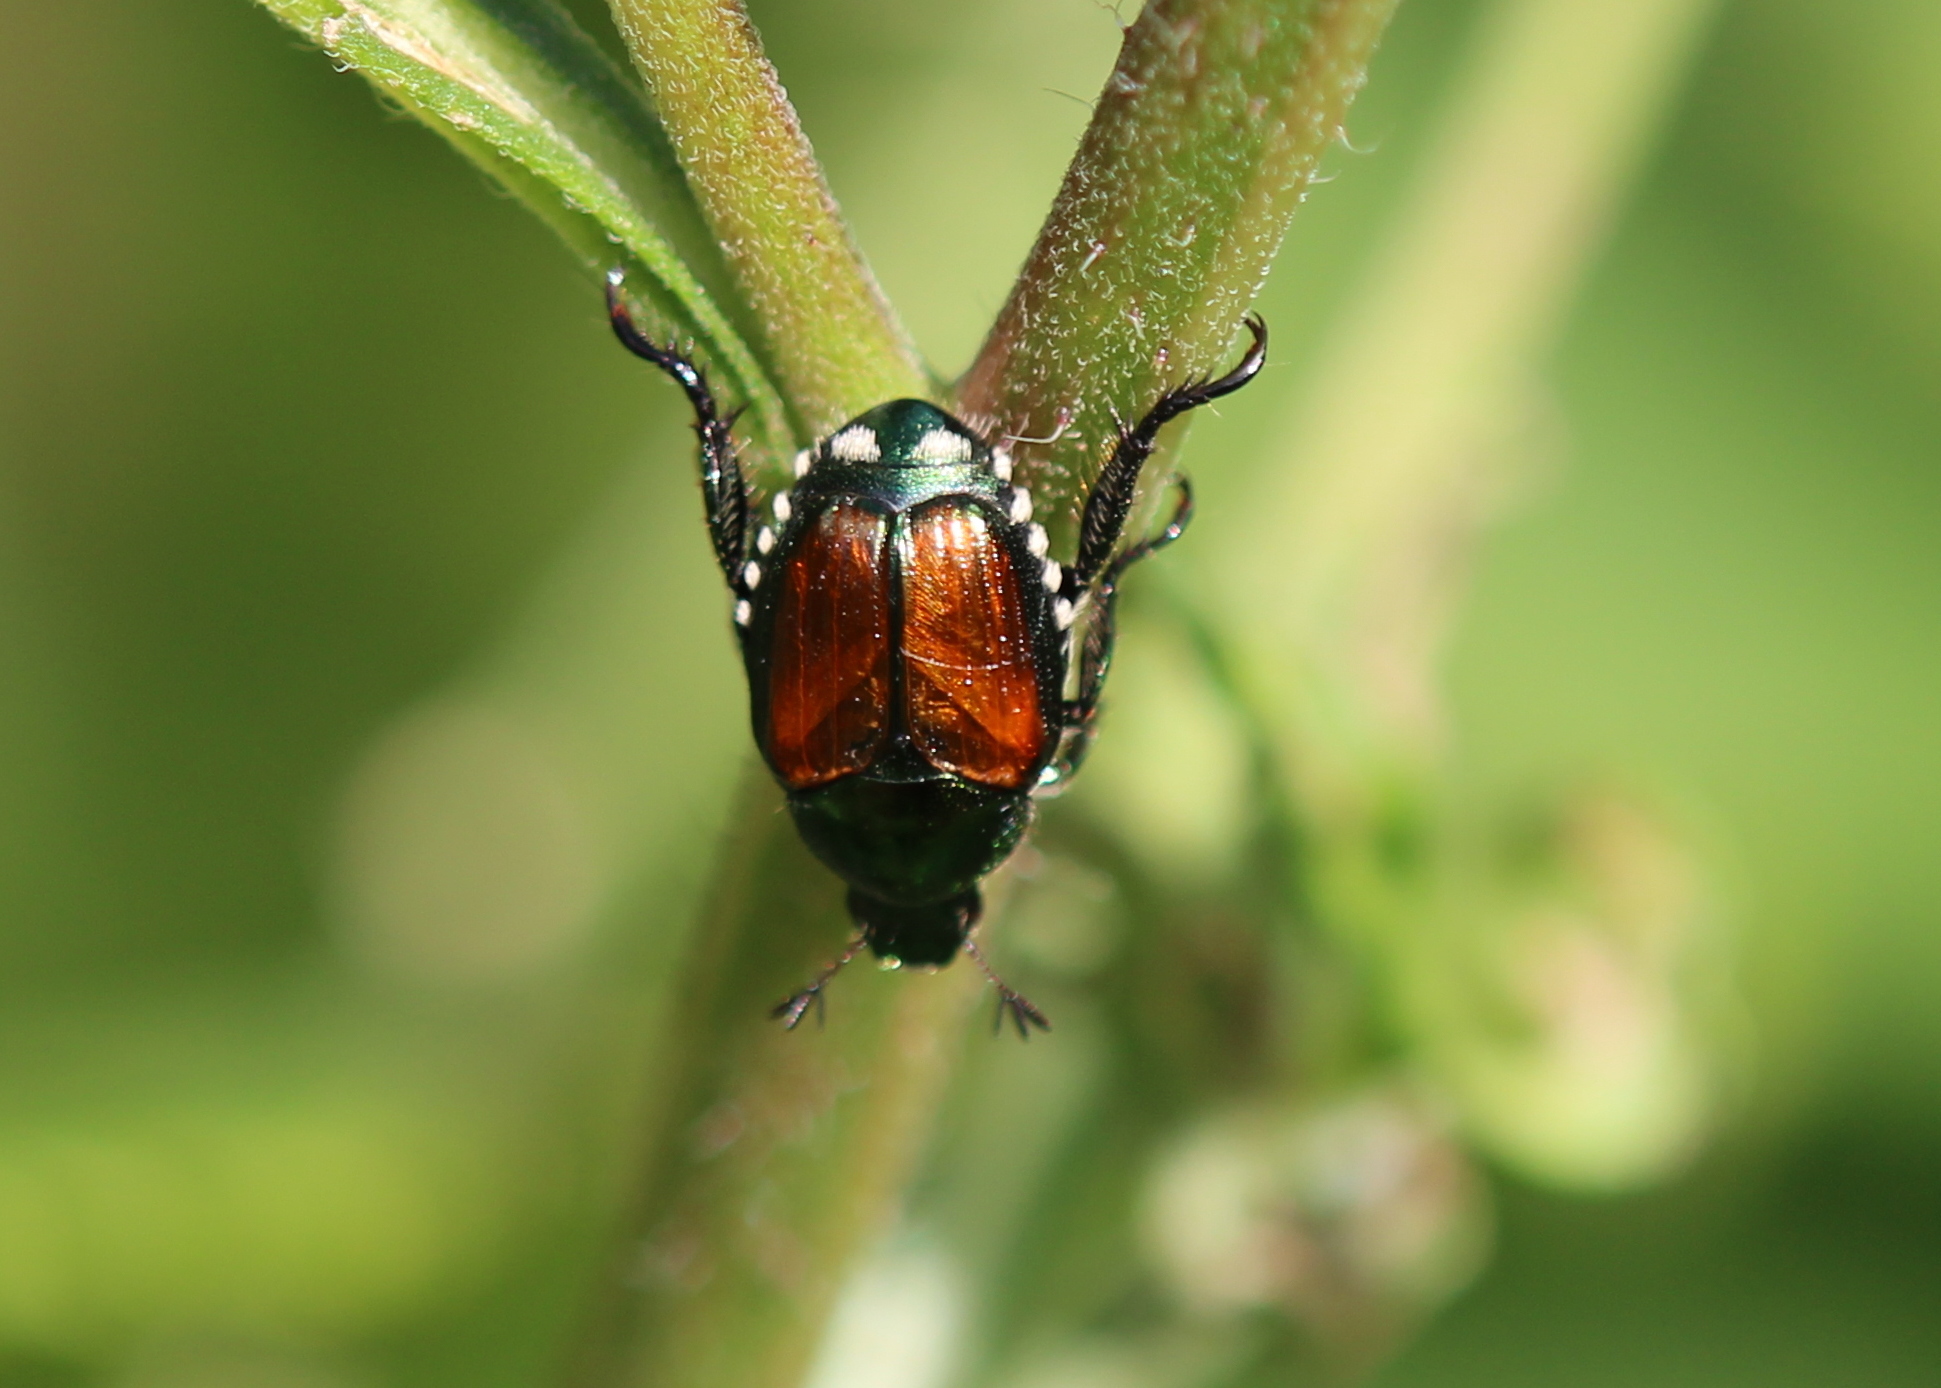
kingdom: Animalia
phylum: Arthropoda
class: Insecta
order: Coleoptera
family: Scarabaeidae
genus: Popillia
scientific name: Popillia japonica
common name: Japanese beetle
